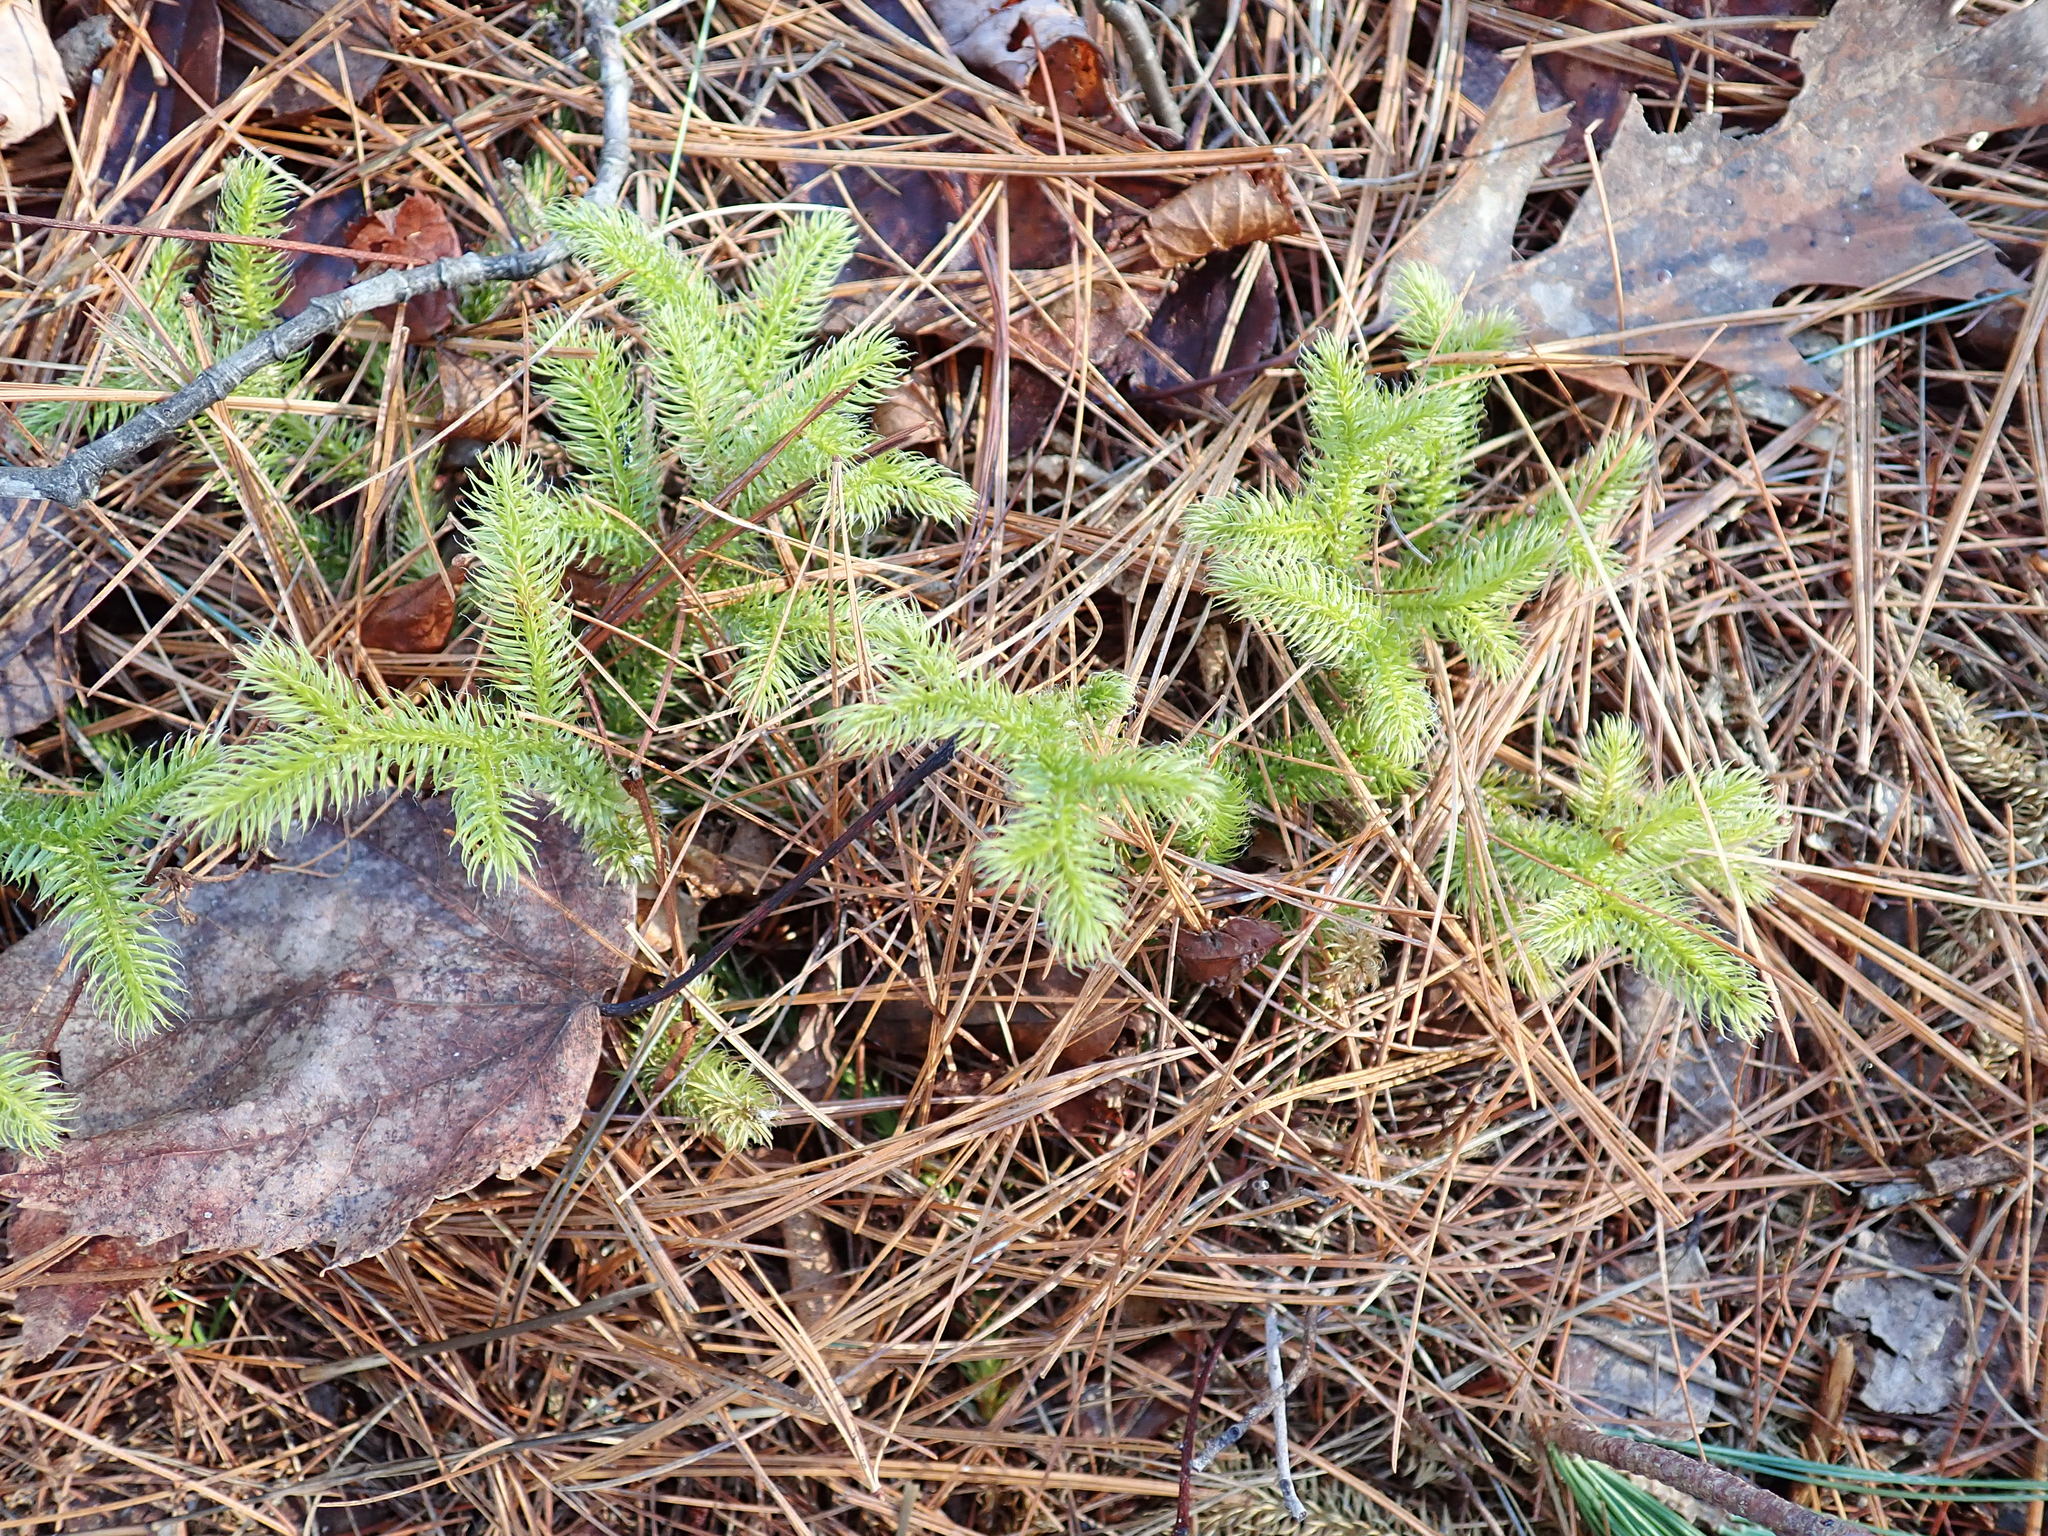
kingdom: Plantae
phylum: Tracheophyta
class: Lycopodiopsida
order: Lycopodiales
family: Lycopodiaceae
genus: Lycopodium
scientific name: Lycopodium clavatum
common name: Stag's-horn clubmoss
